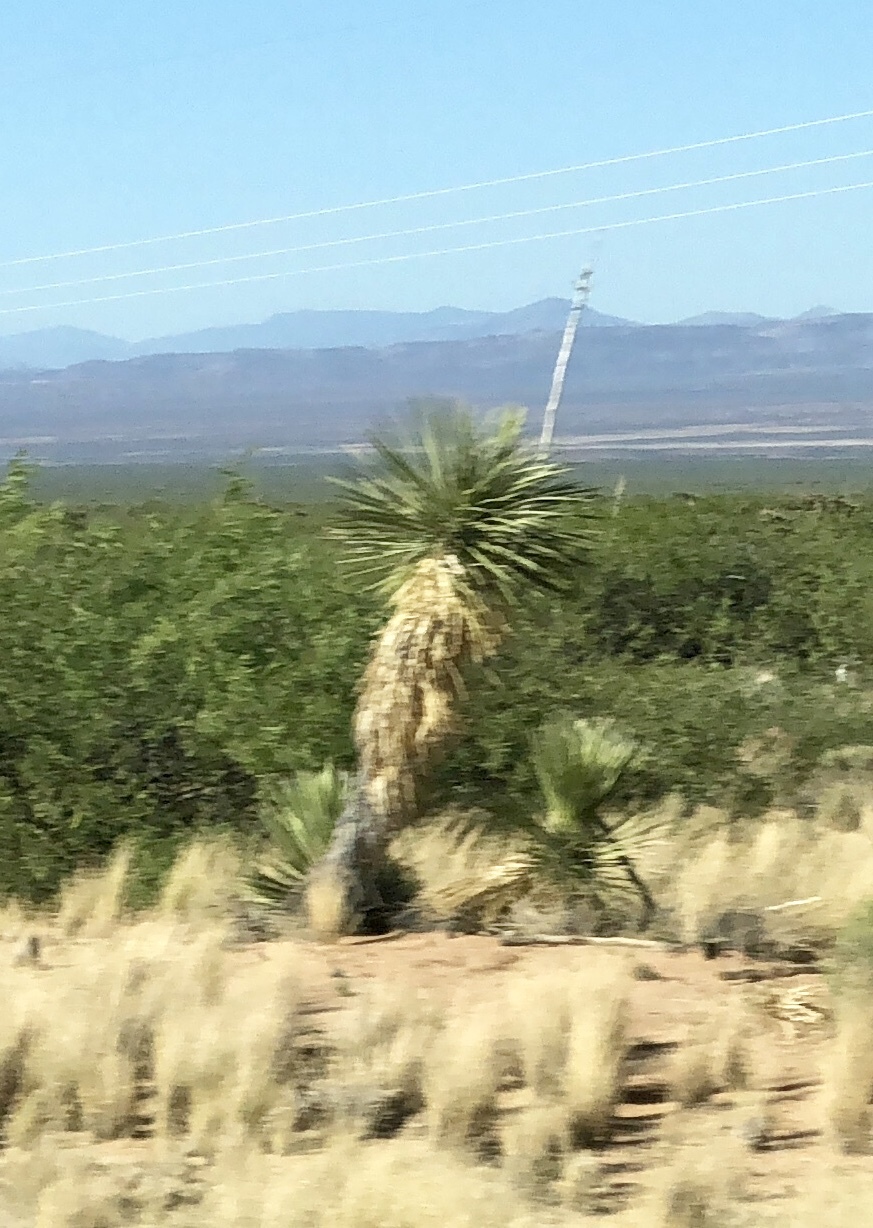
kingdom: Plantae
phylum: Tracheophyta
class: Liliopsida
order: Asparagales
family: Asparagaceae
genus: Yucca
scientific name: Yucca elata
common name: Palmella
